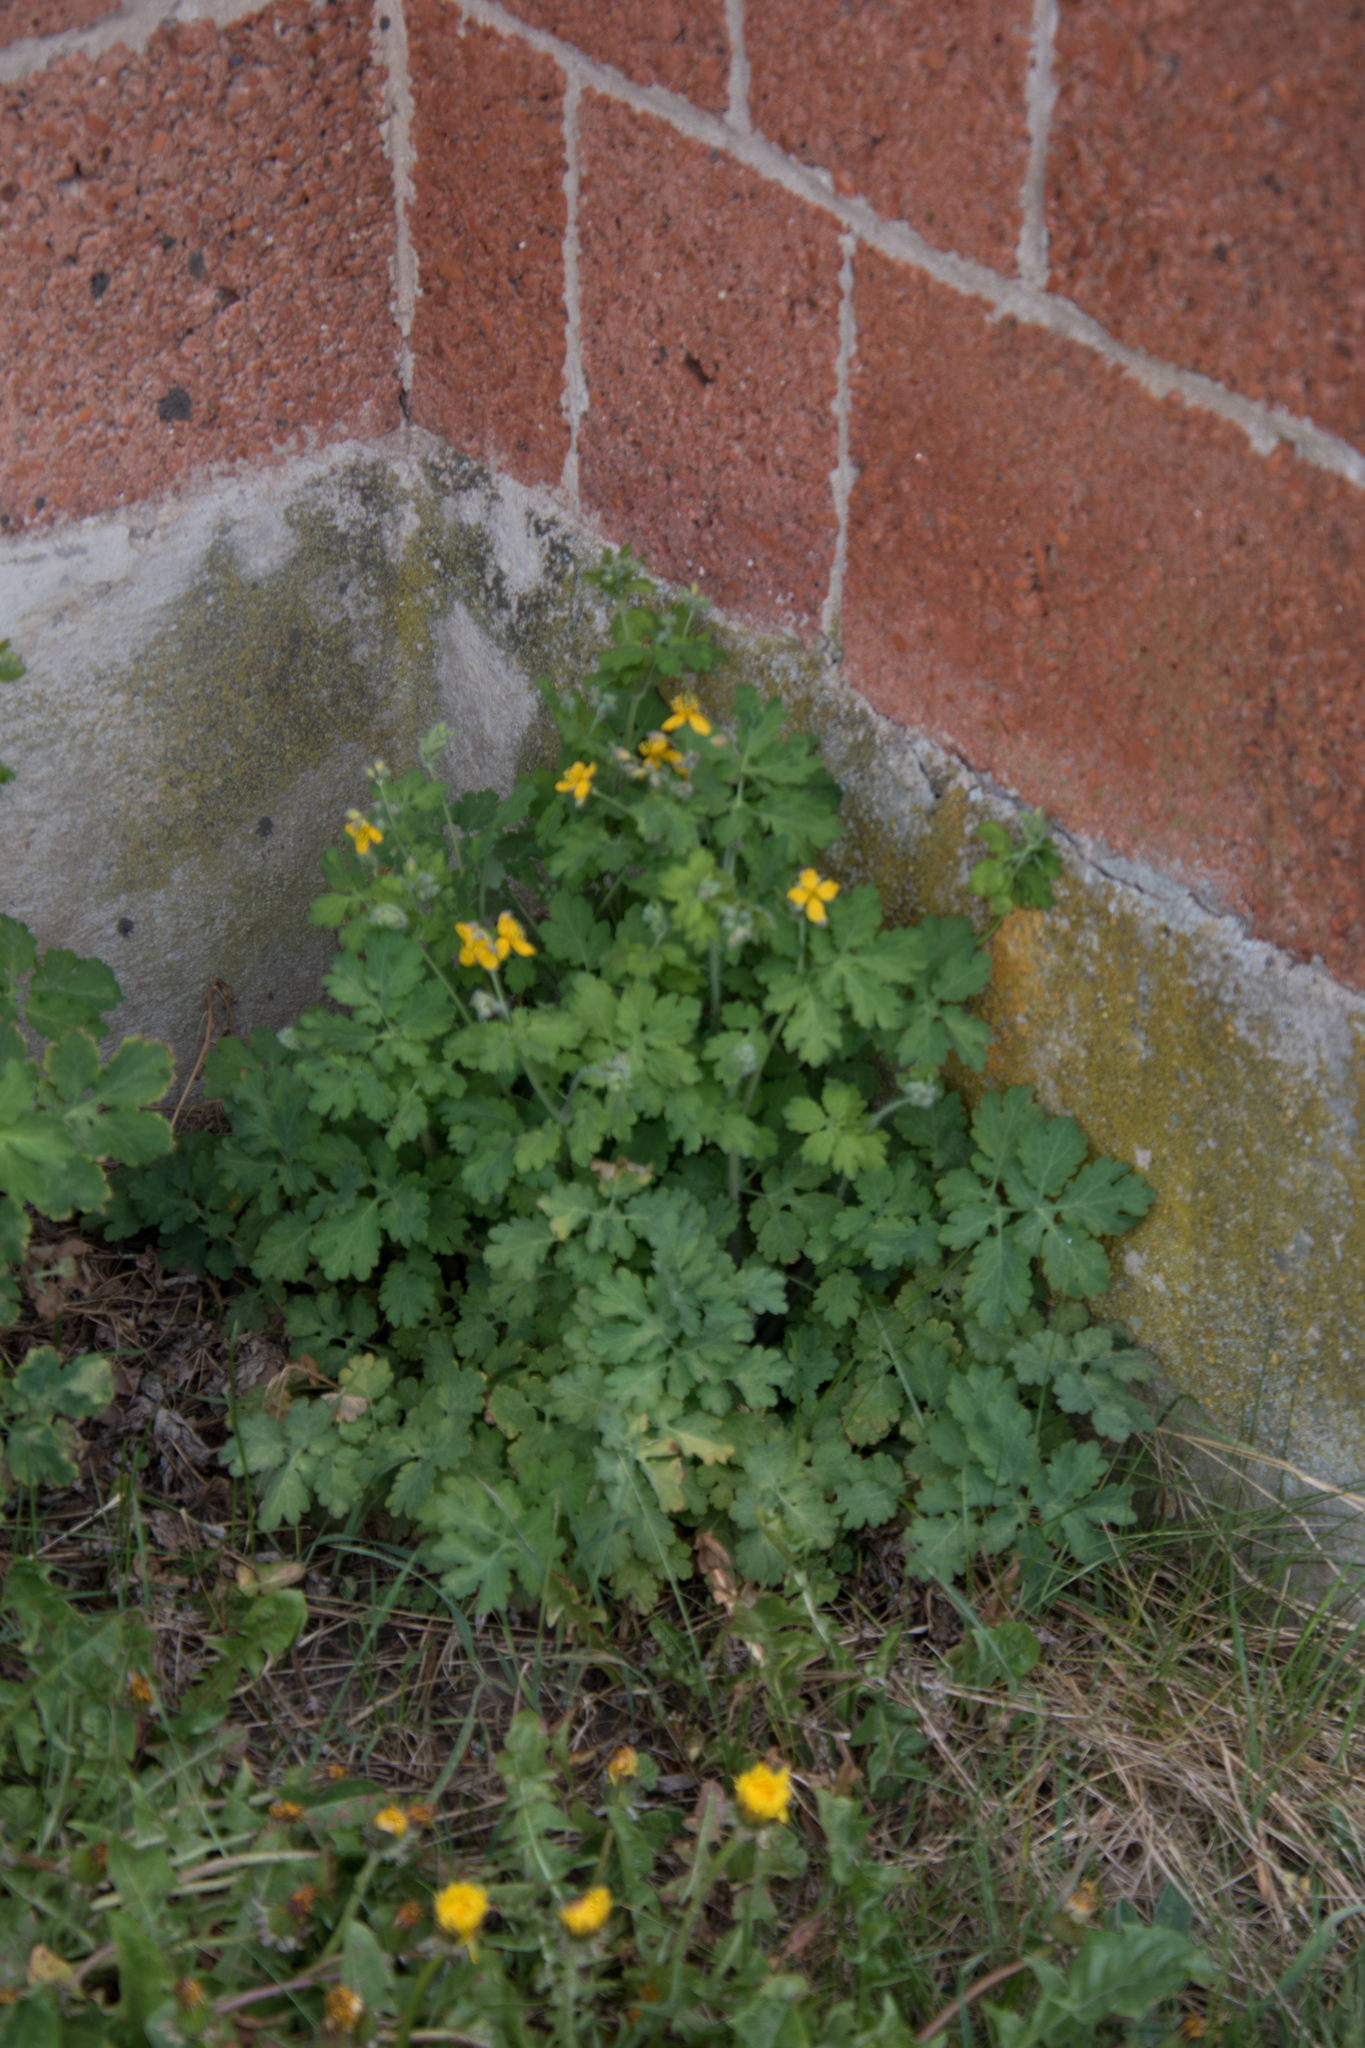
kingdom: Plantae
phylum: Tracheophyta
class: Magnoliopsida
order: Ranunculales
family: Papaveraceae
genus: Chelidonium
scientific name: Chelidonium majus
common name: Greater celandine
